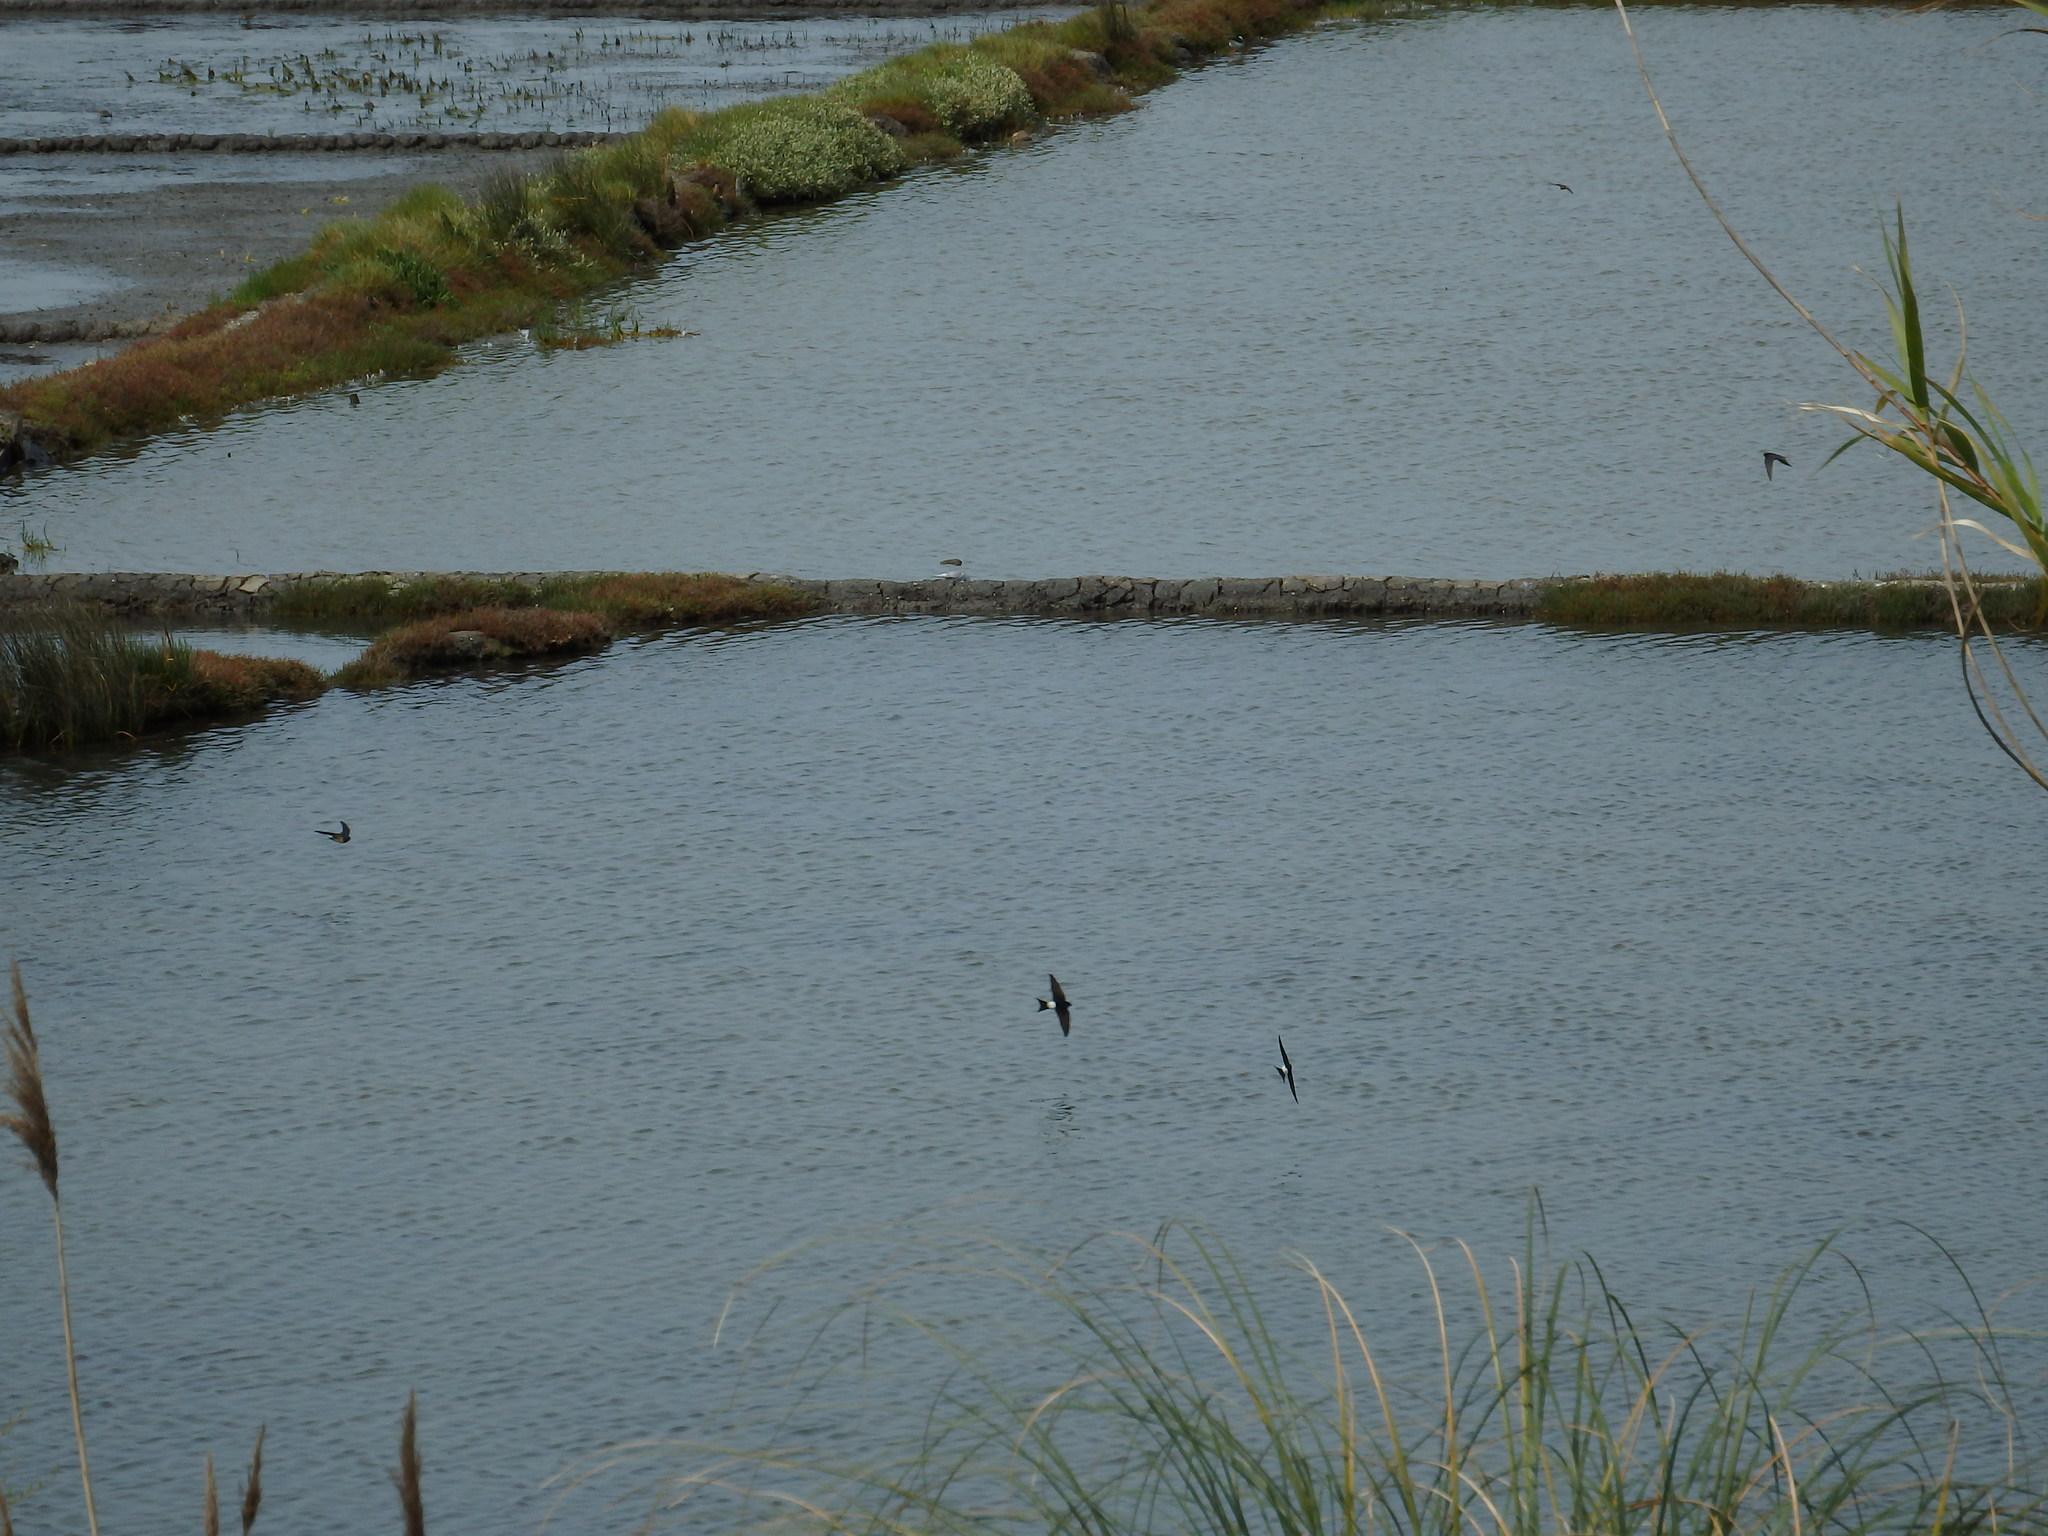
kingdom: Animalia
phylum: Chordata
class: Aves
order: Passeriformes
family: Hirundinidae
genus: Delichon
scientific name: Delichon urbicum
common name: Common house martin
